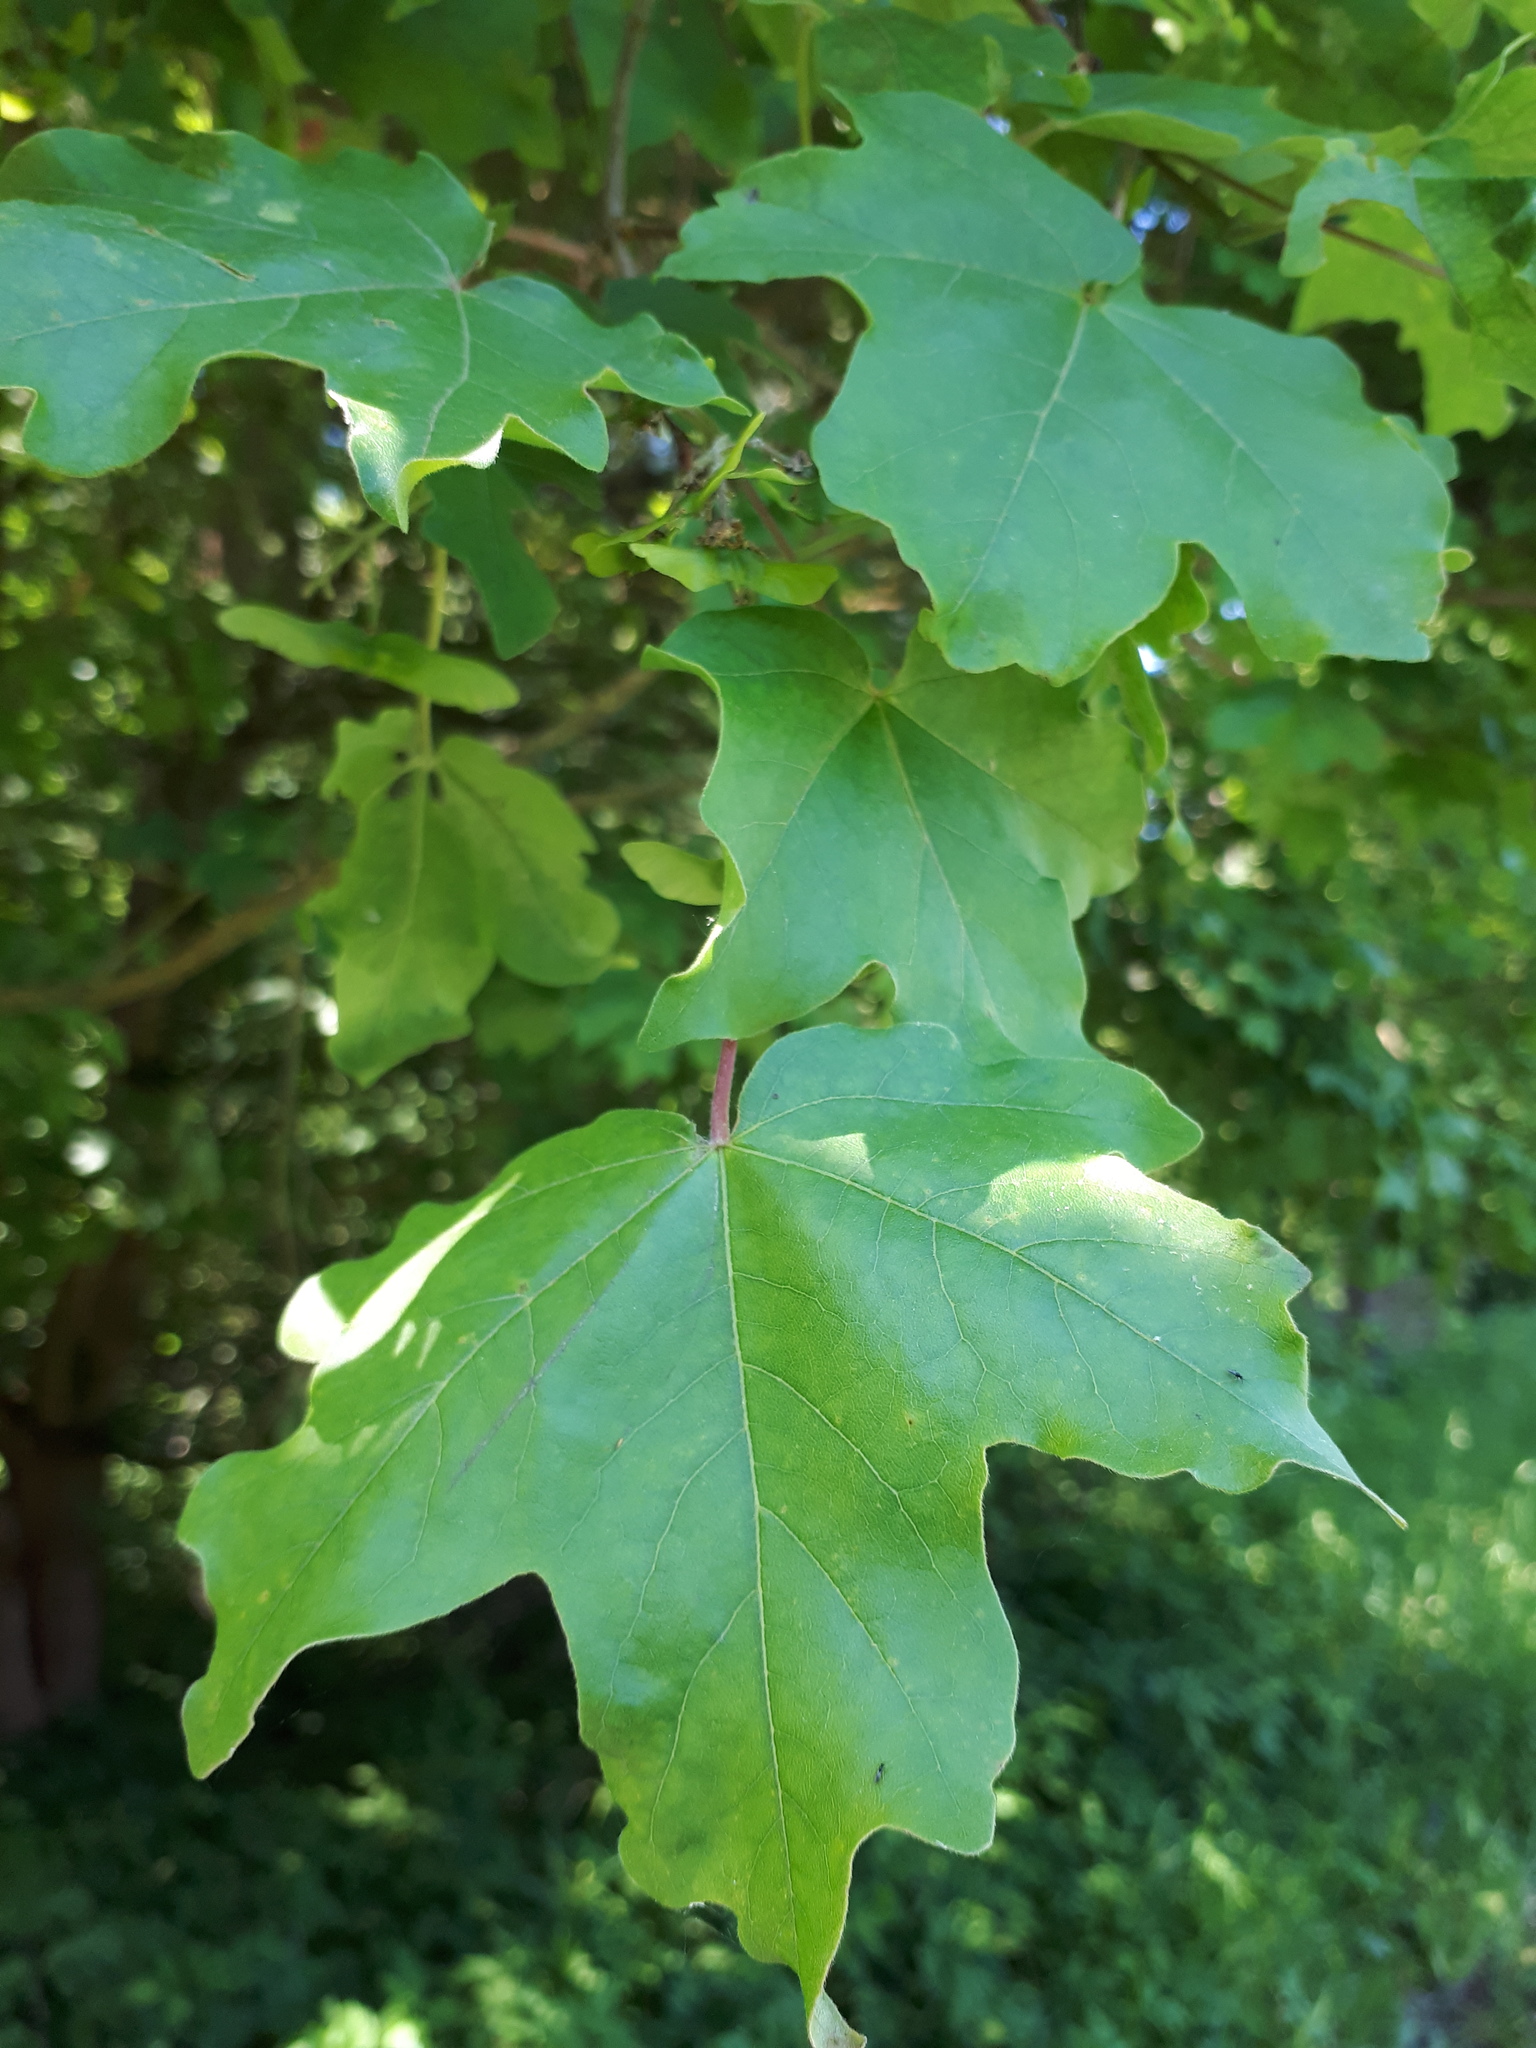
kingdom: Plantae
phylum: Tracheophyta
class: Magnoliopsida
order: Sapindales
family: Sapindaceae
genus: Acer
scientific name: Acer campestre
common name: Field maple
